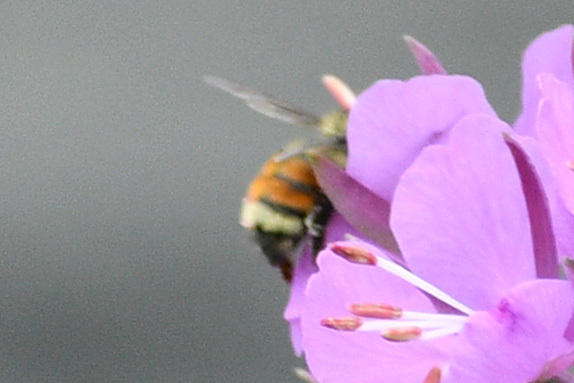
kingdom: Animalia
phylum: Arthropoda
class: Insecta
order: Hymenoptera
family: Apidae
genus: Bombus
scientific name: Bombus vancouverensis
